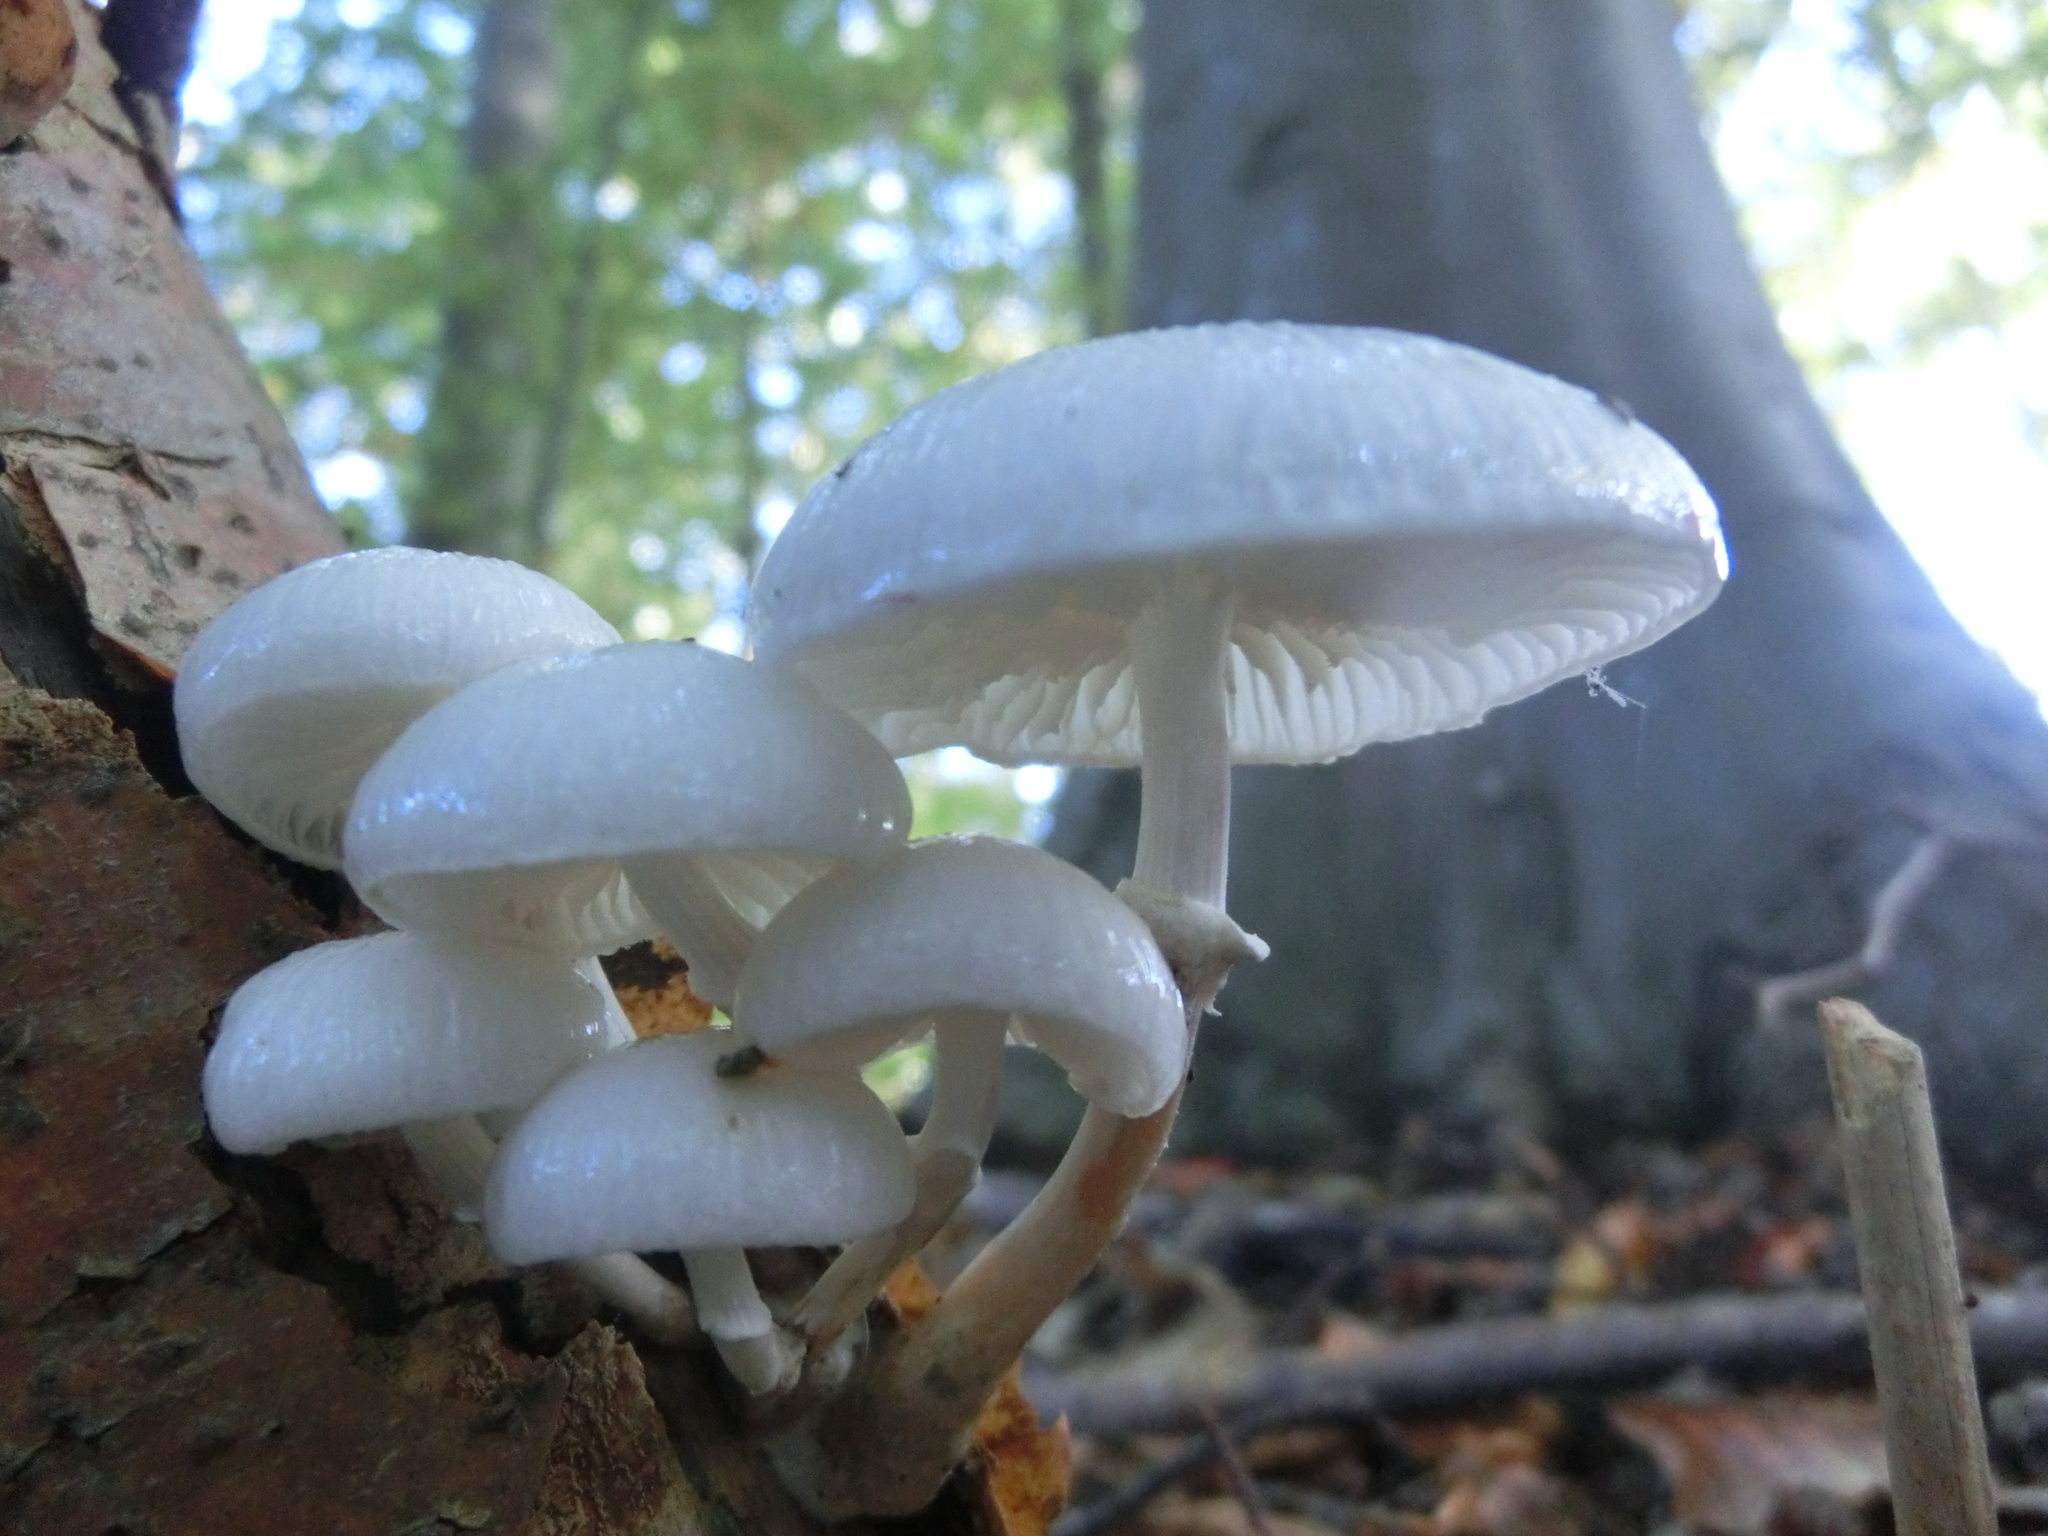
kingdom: Fungi
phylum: Basidiomycota
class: Agaricomycetes
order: Agaricales
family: Physalacriaceae
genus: Mucidula
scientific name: Mucidula mucida
